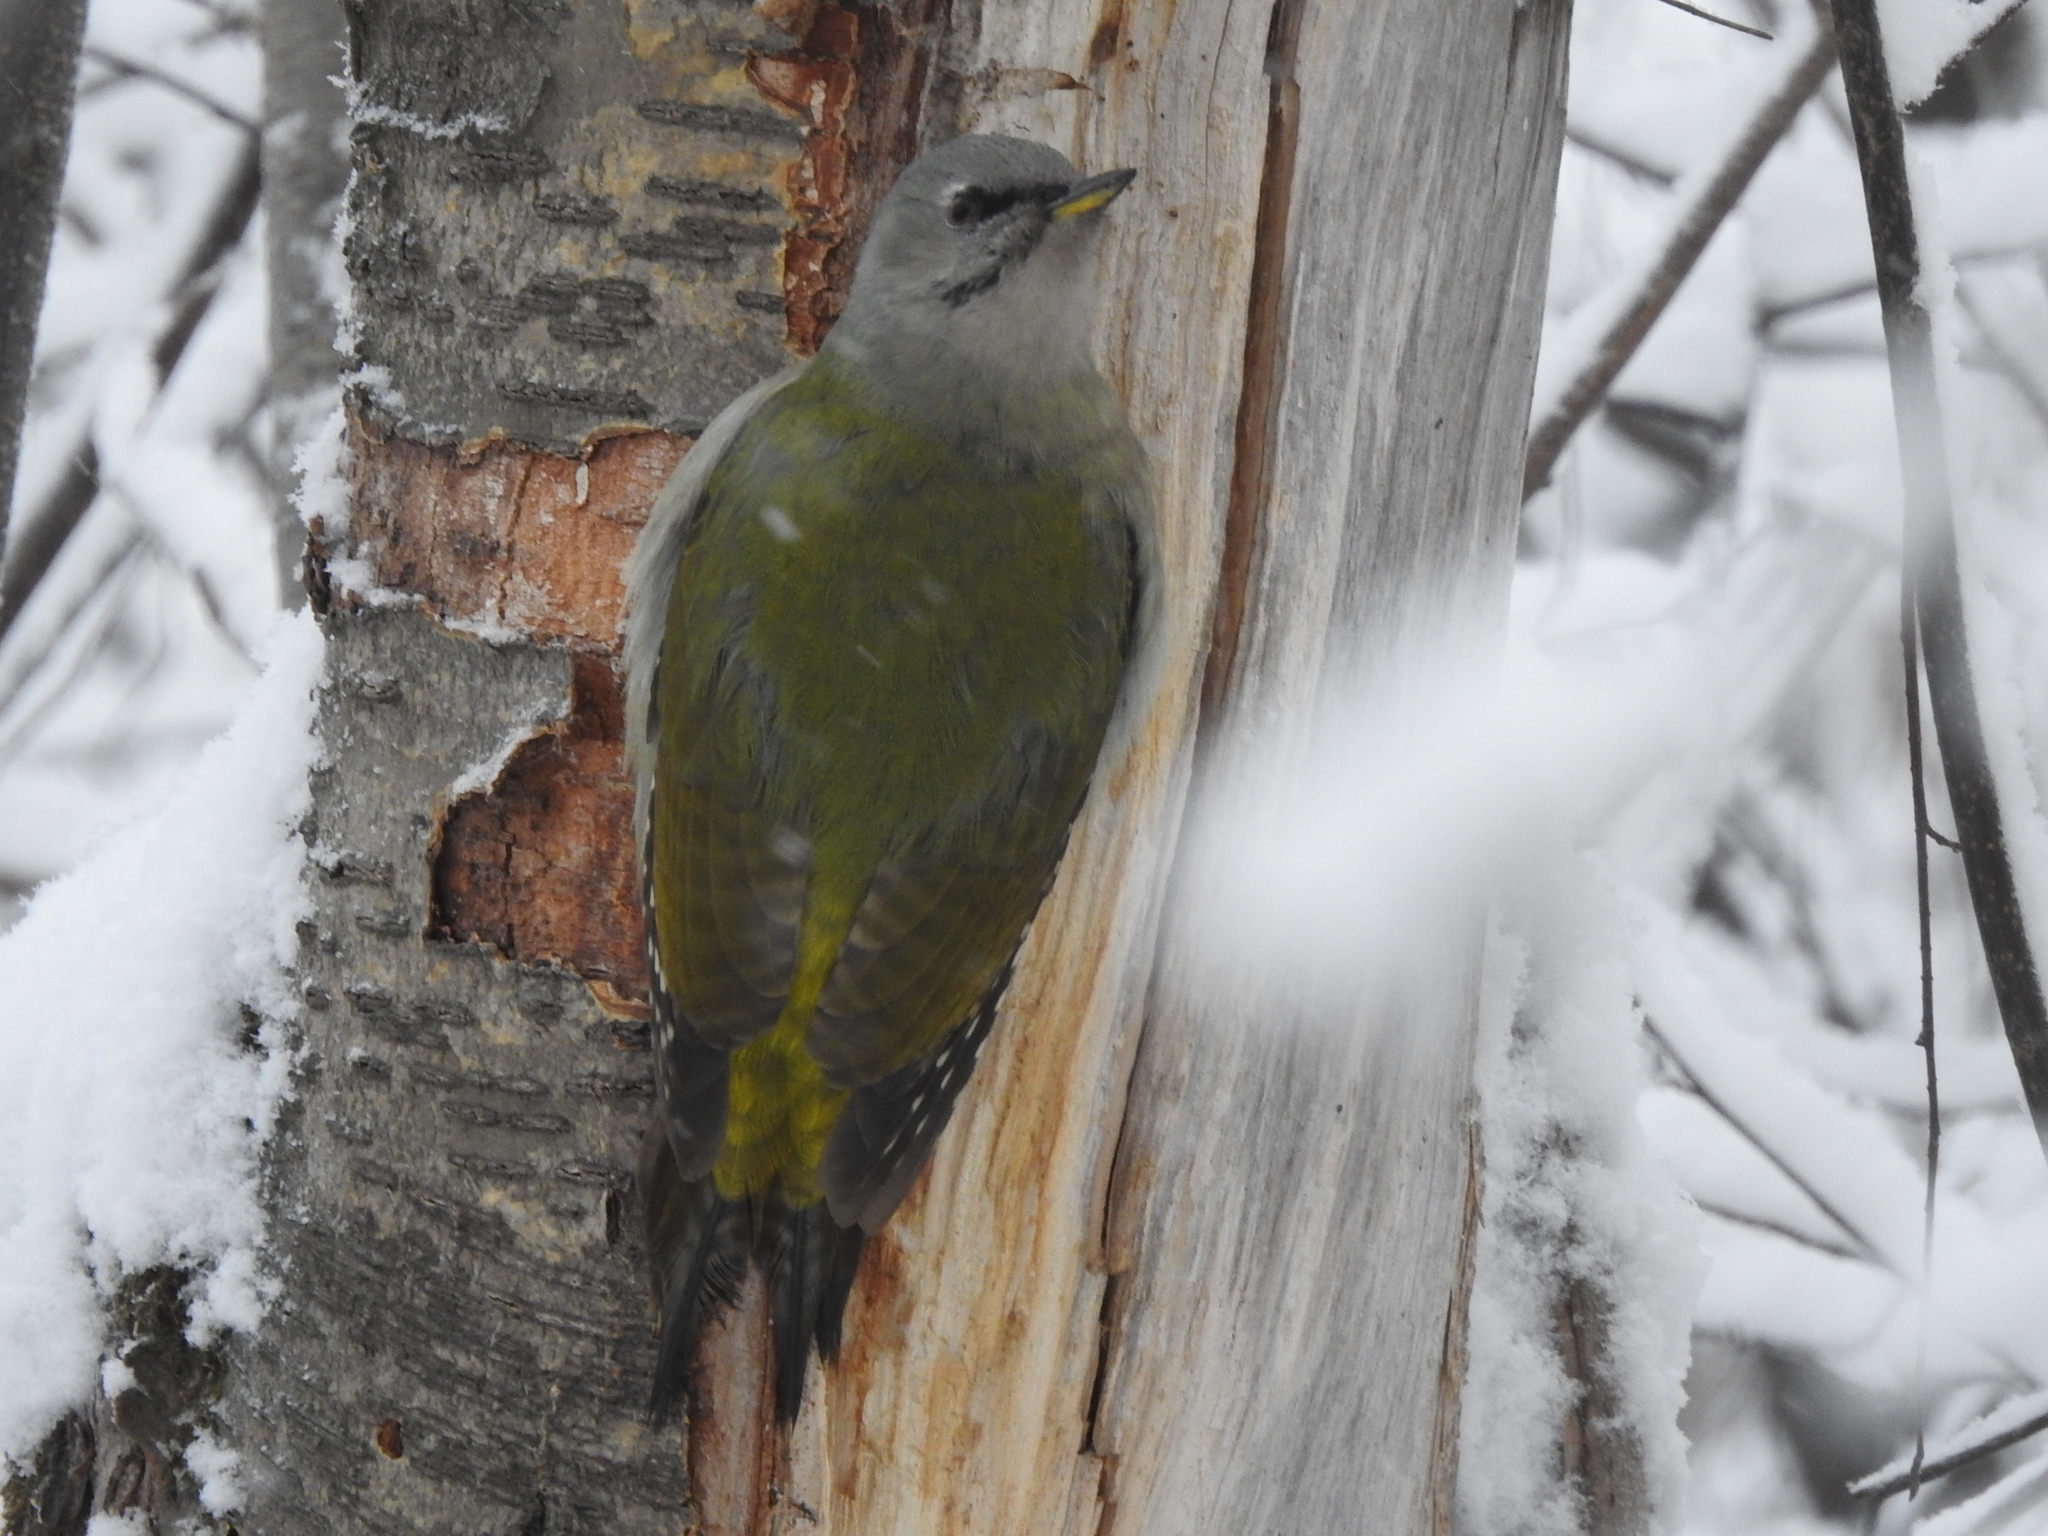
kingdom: Animalia
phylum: Chordata
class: Aves
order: Piciformes
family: Picidae
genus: Picus
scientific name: Picus canus
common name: Grey-headed woodpecker
